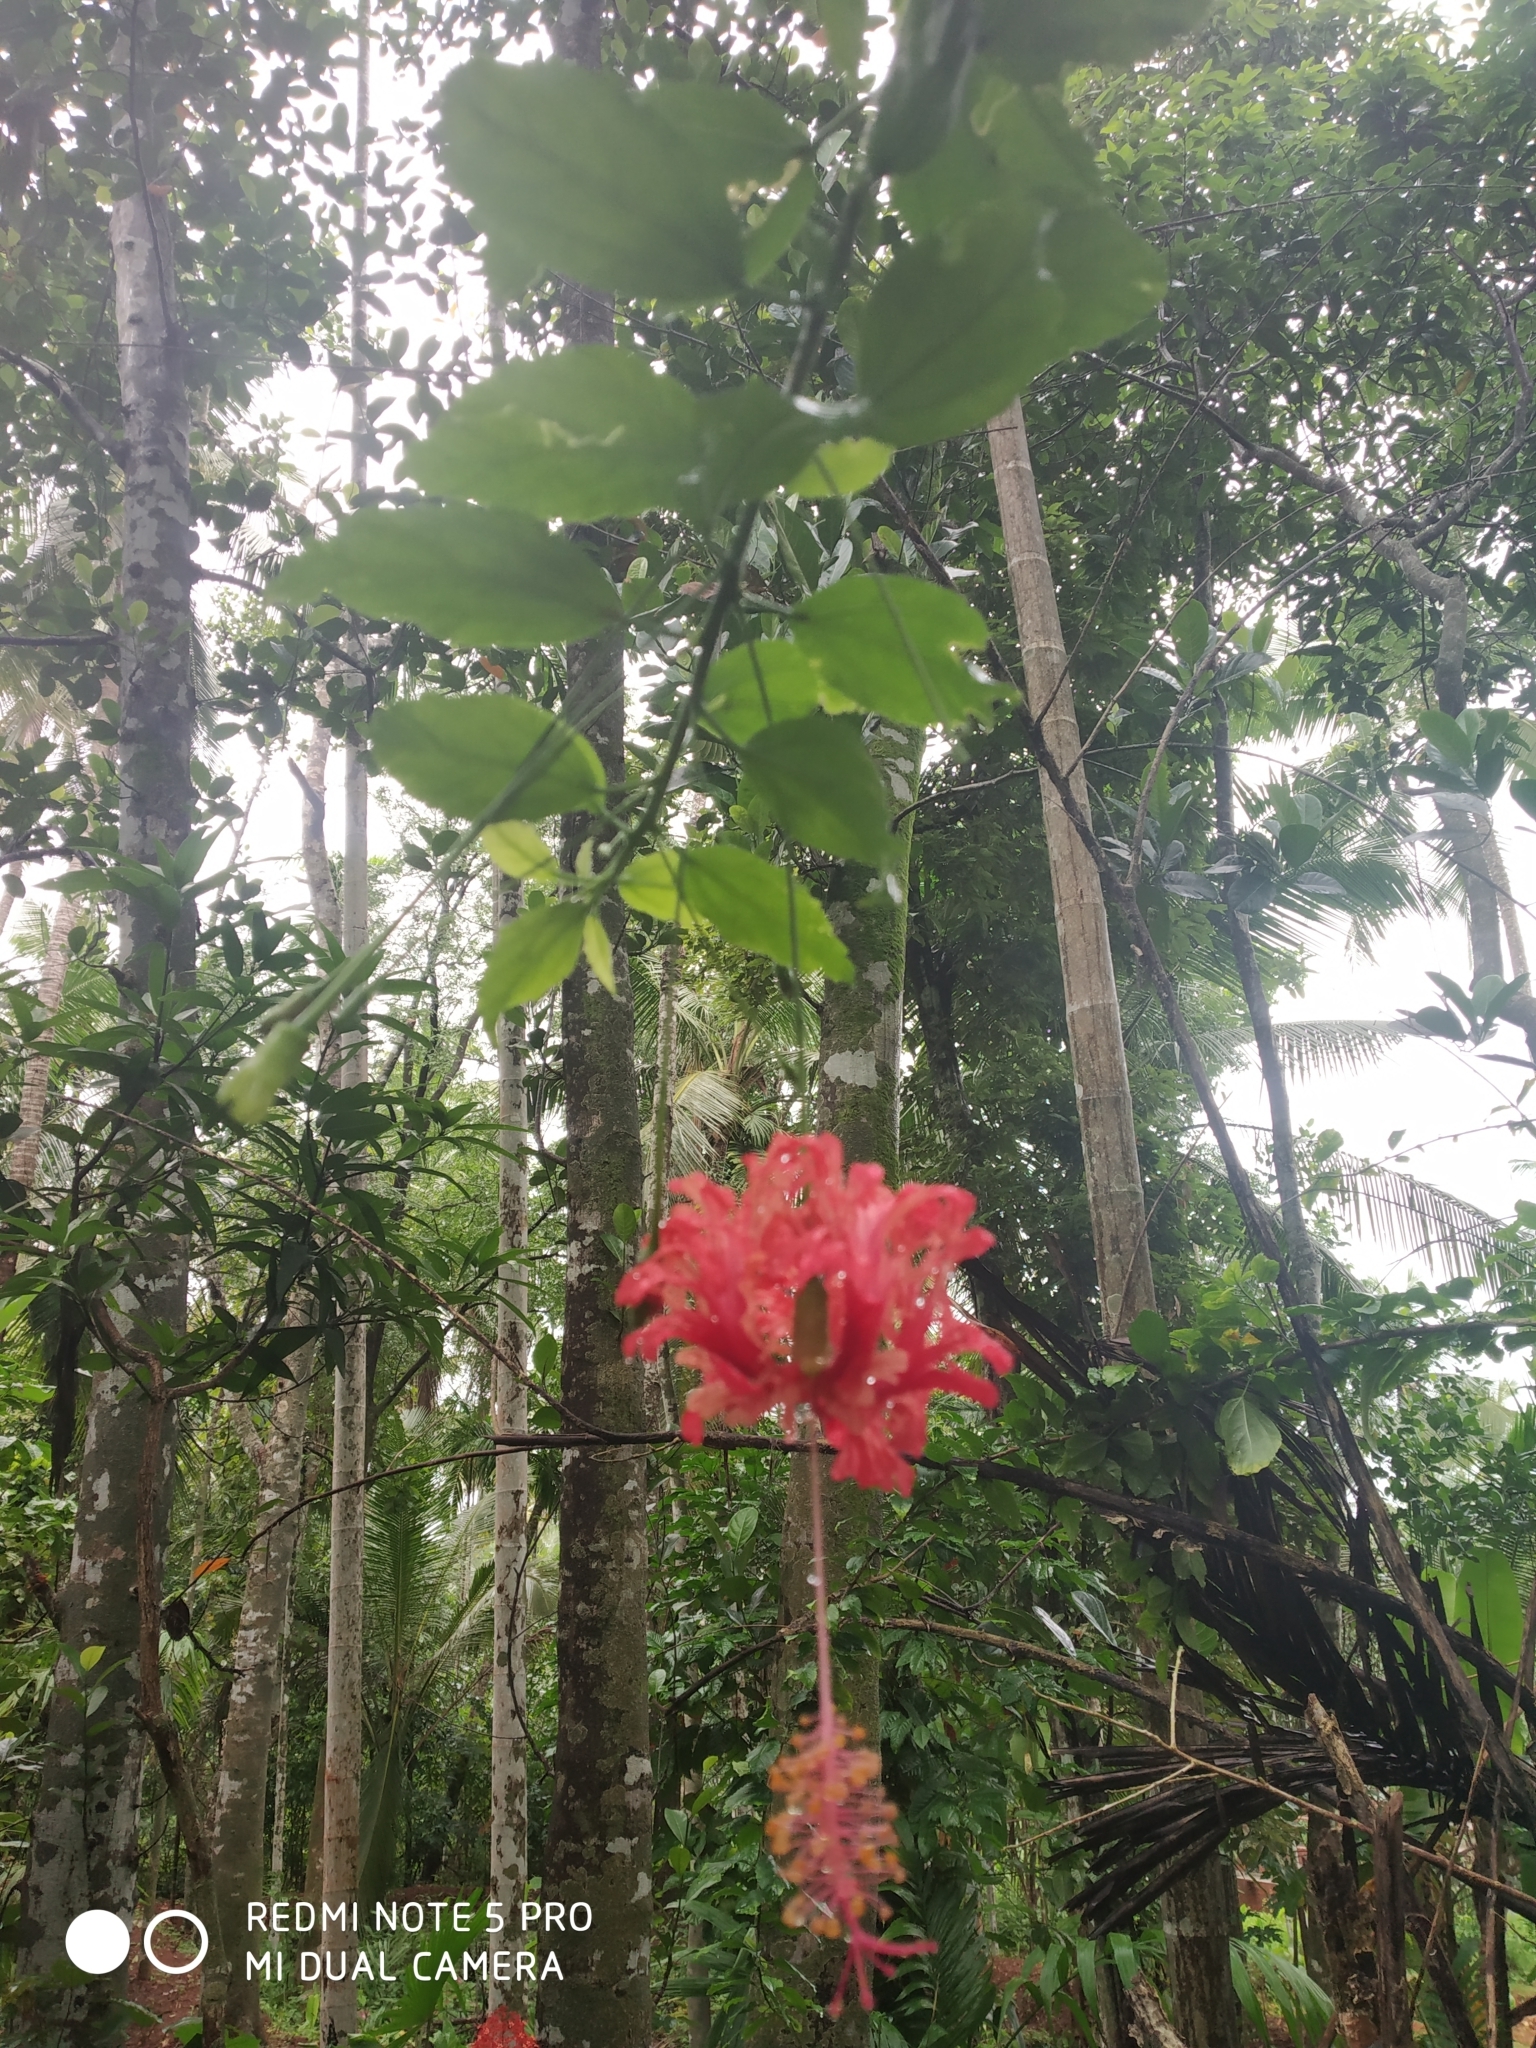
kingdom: Plantae
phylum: Tracheophyta
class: Magnoliopsida
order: Malvales
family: Malvaceae
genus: Hibiscus
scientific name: Hibiscus schizopetalus
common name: Fringed rosemallow
